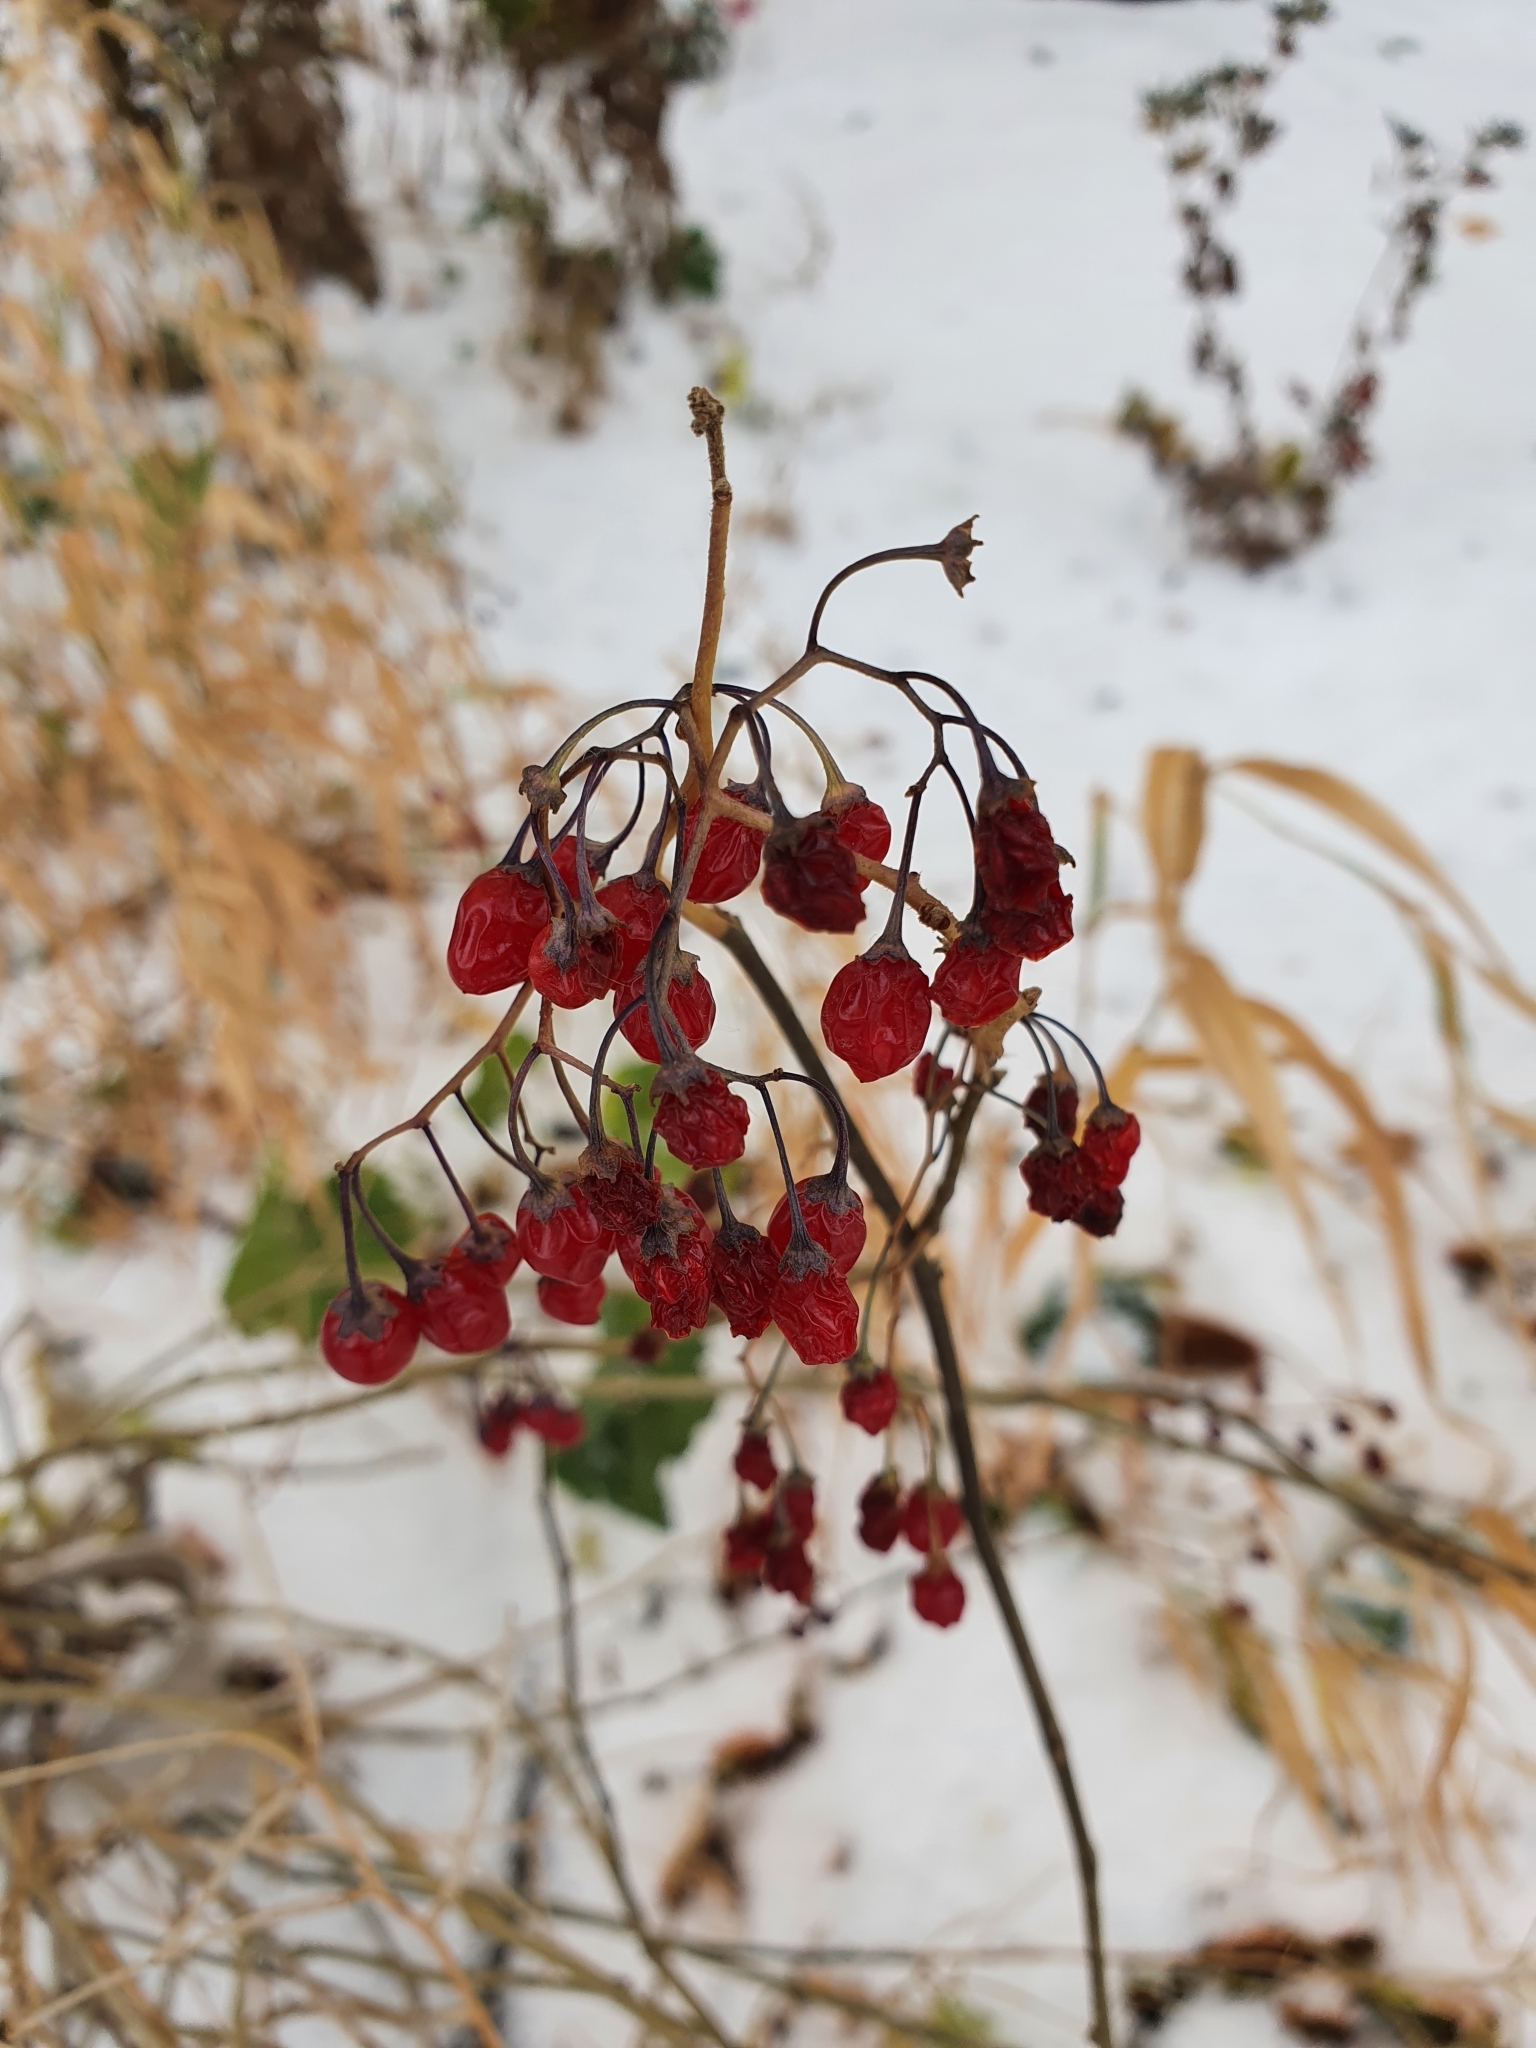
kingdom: Plantae
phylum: Tracheophyta
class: Magnoliopsida
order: Solanales
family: Solanaceae
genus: Solanum
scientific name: Solanum dulcamara
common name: Climbing nightshade
